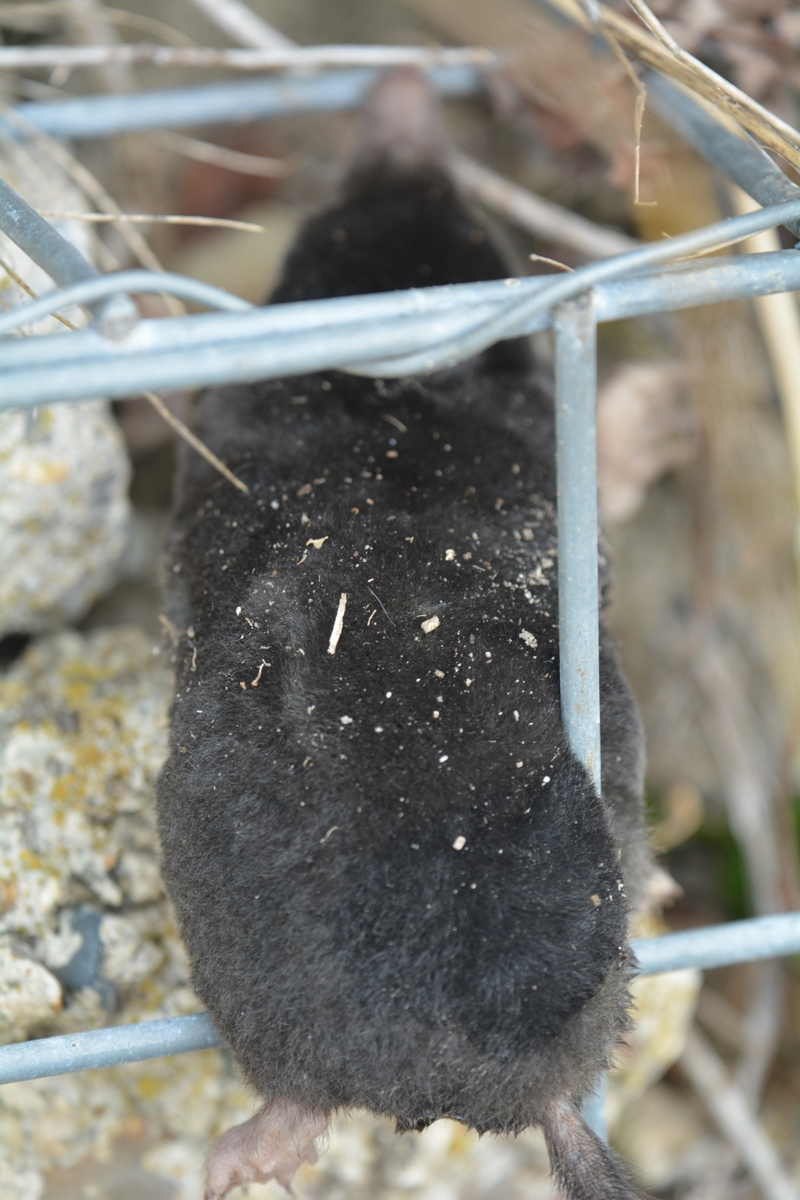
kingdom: Animalia
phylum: Chordata
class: Mammalia
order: Soricomorpha
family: Talpidae
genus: Talpa
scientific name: Talpa europaea
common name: European mole
